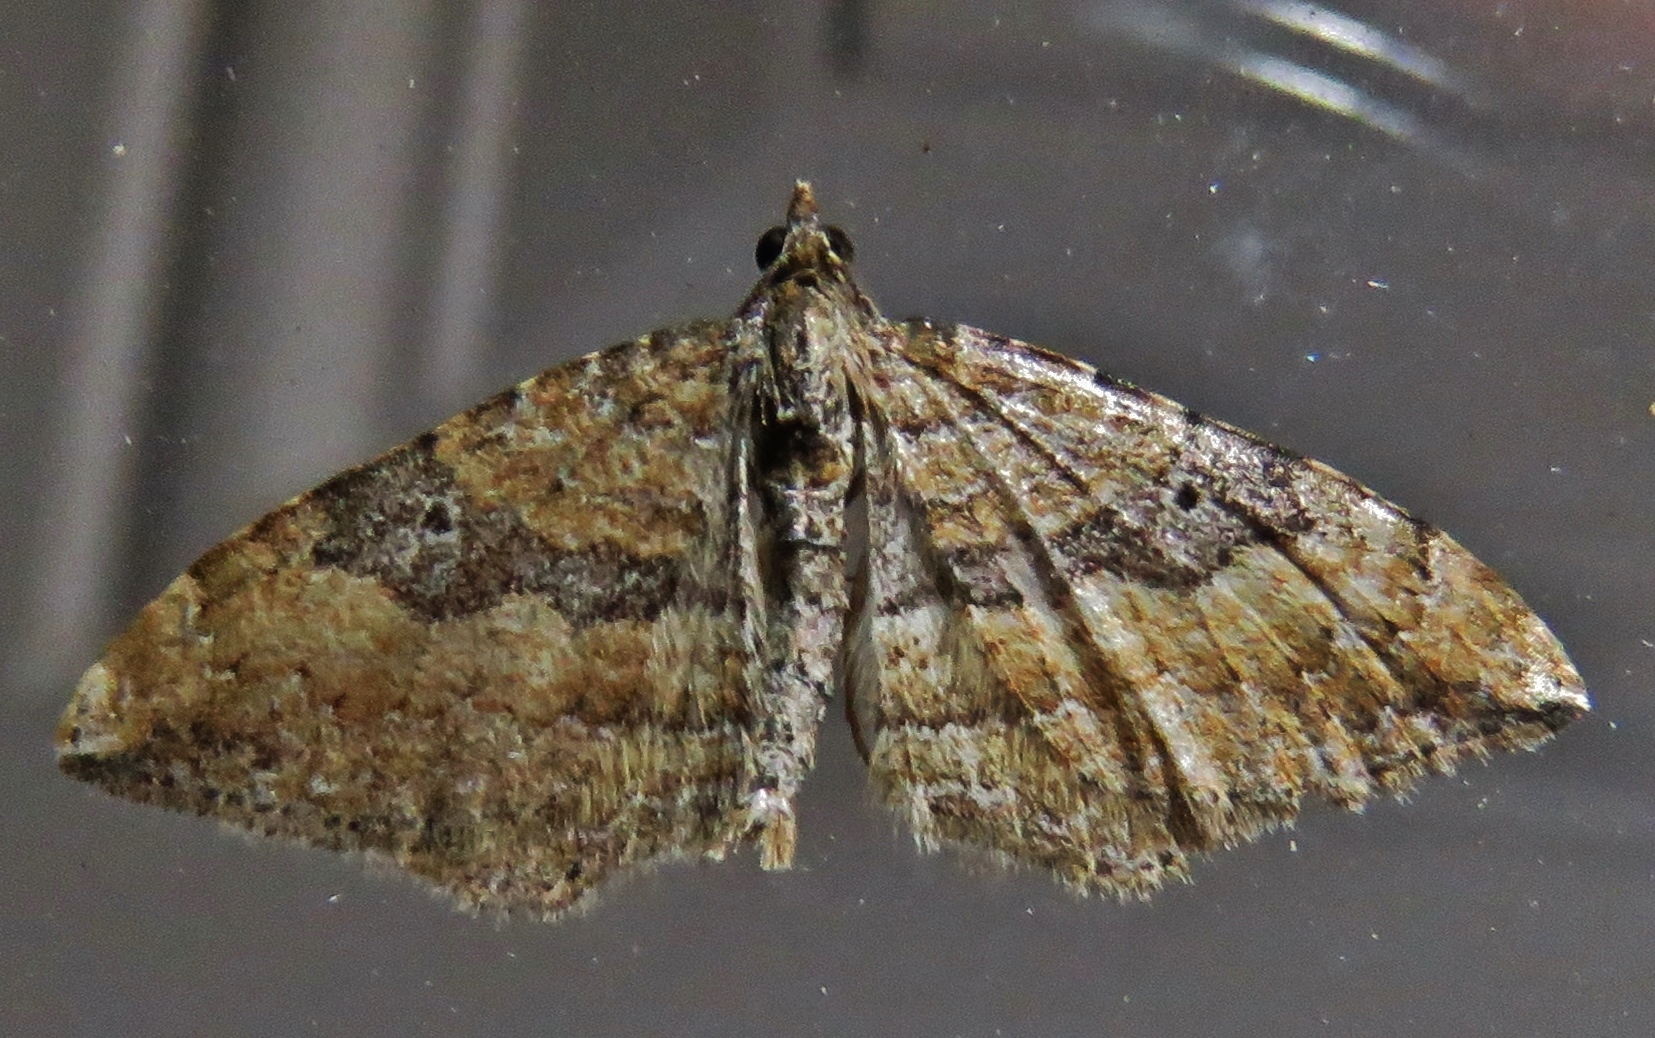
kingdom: Animalia
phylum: Arthropoda
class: Insecta
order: Lepidoptera
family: Geometridae
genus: Orthonama
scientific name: Orthonama obstipata
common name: The gem
